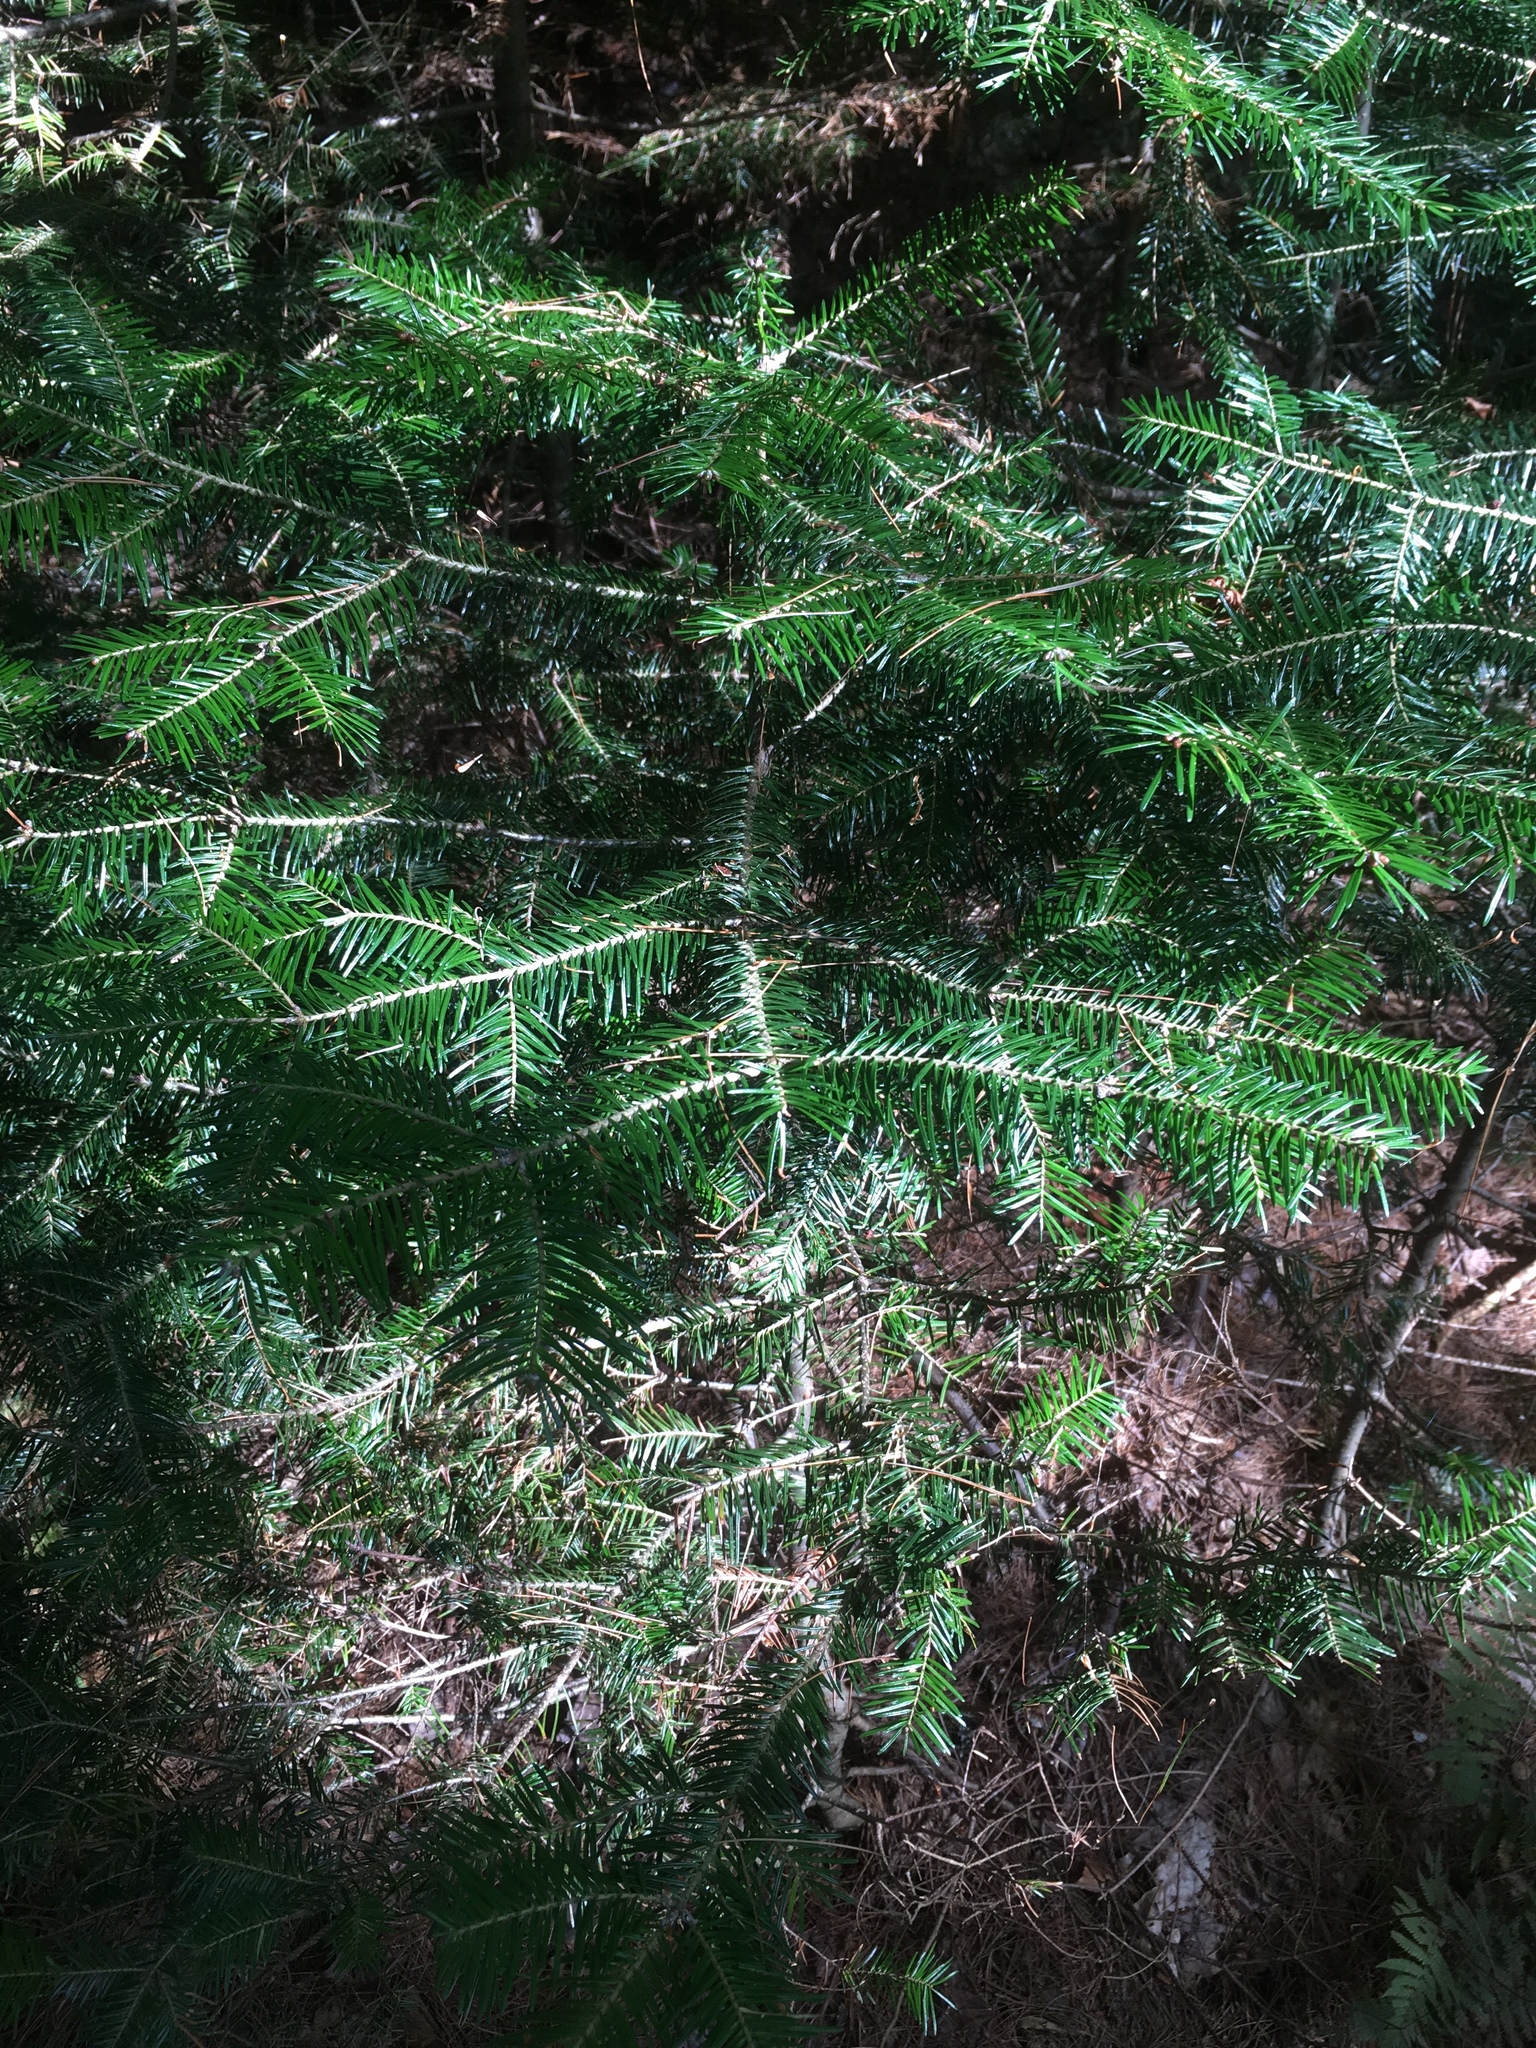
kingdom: Plantae
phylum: Tracheophyta
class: Pinopsida
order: Pinales
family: Pinaceae
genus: Abies
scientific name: Abies balsamea
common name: Balsam fir
